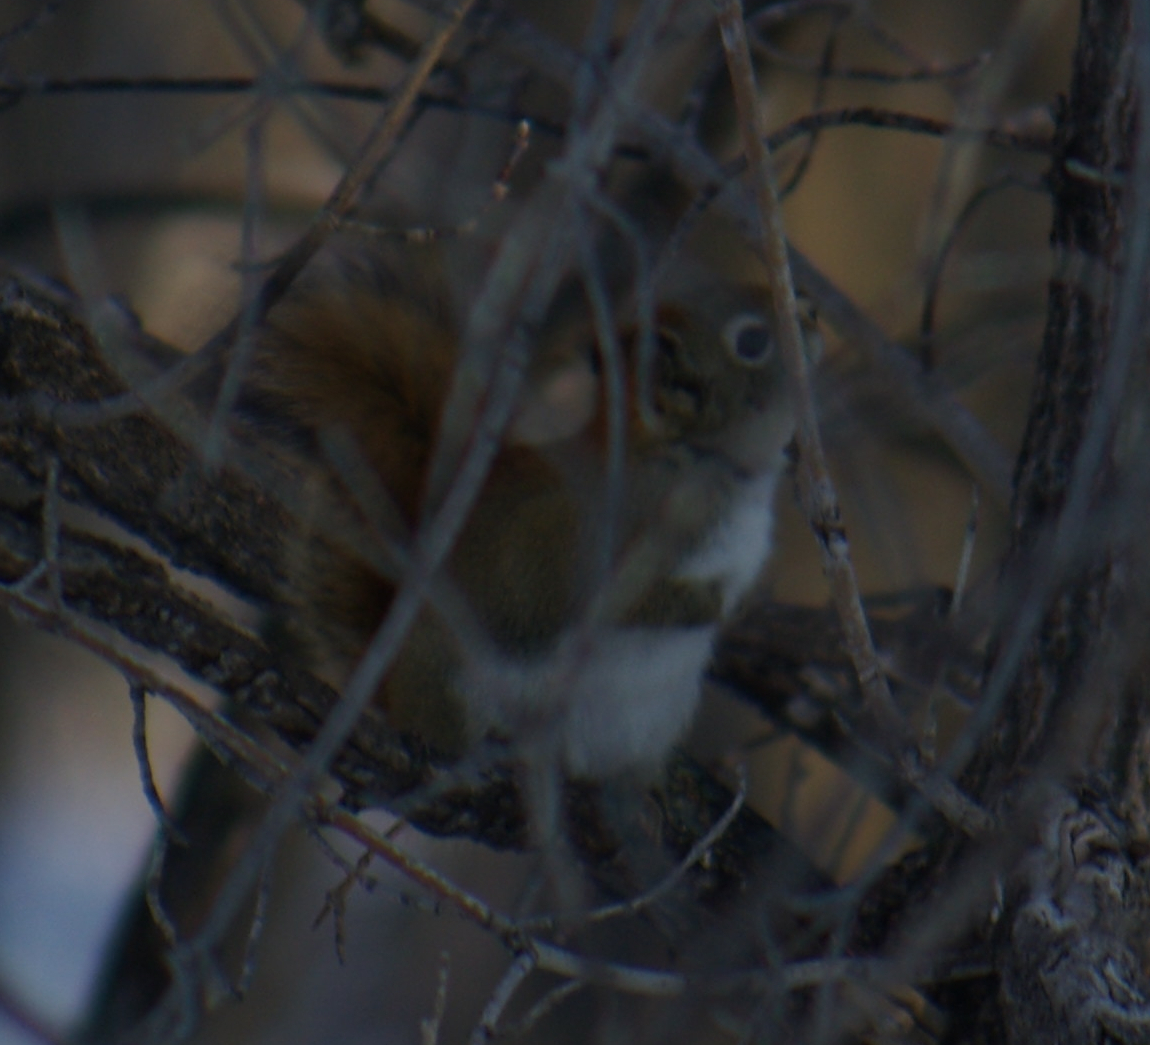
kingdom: Animalia
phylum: Chordata
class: Mammalia
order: Rodentia
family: Sciuridae
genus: Tamiasciurus
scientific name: Tamiasciurus hudsonicus
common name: Red squirrel
